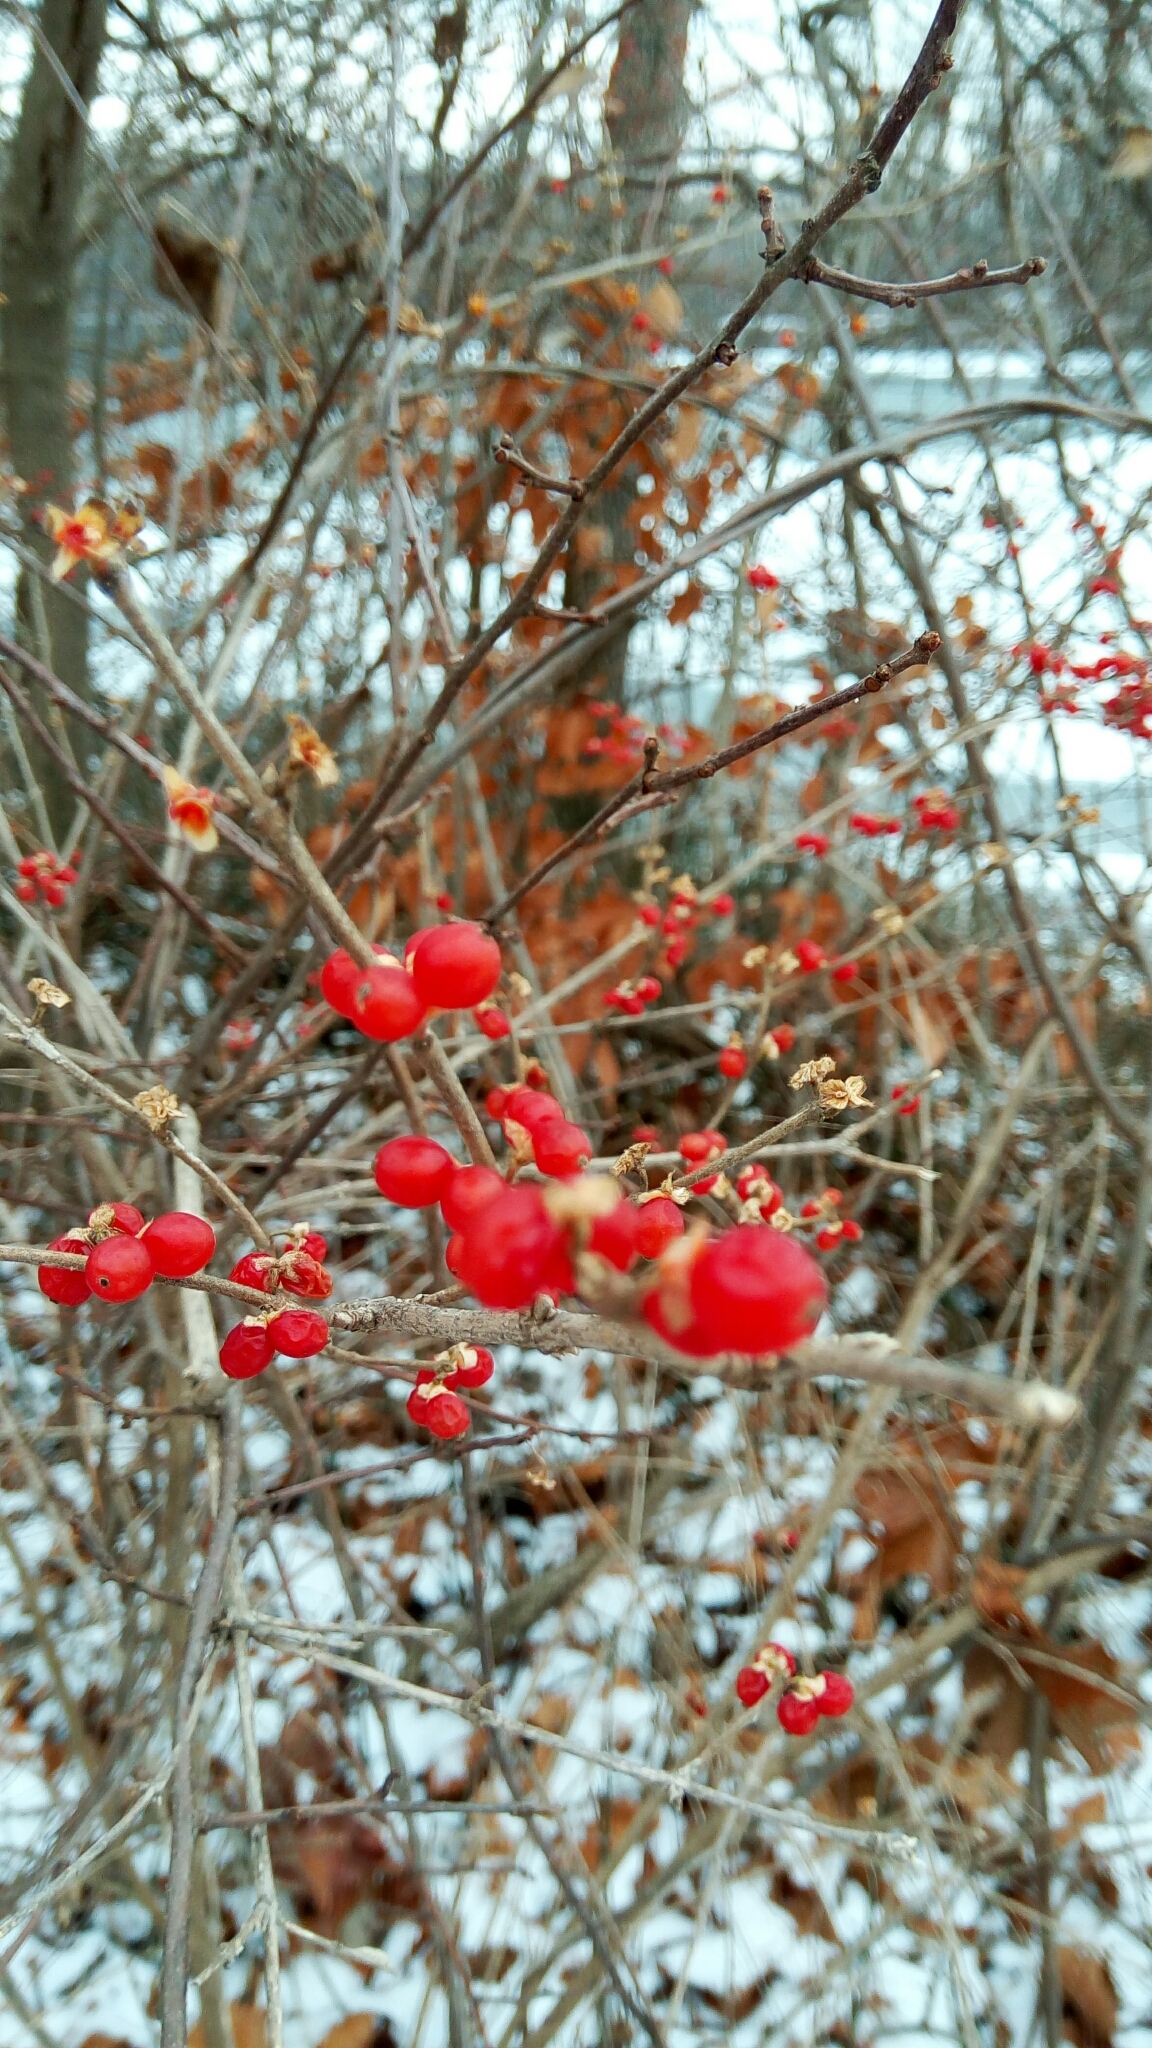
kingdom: Plantae
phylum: Tracheophyta
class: Magnoliopsida
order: Dipsacales
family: Caprifoliaceae
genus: Lonicera
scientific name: Lonicera maackii
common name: Amur honeysuckle
